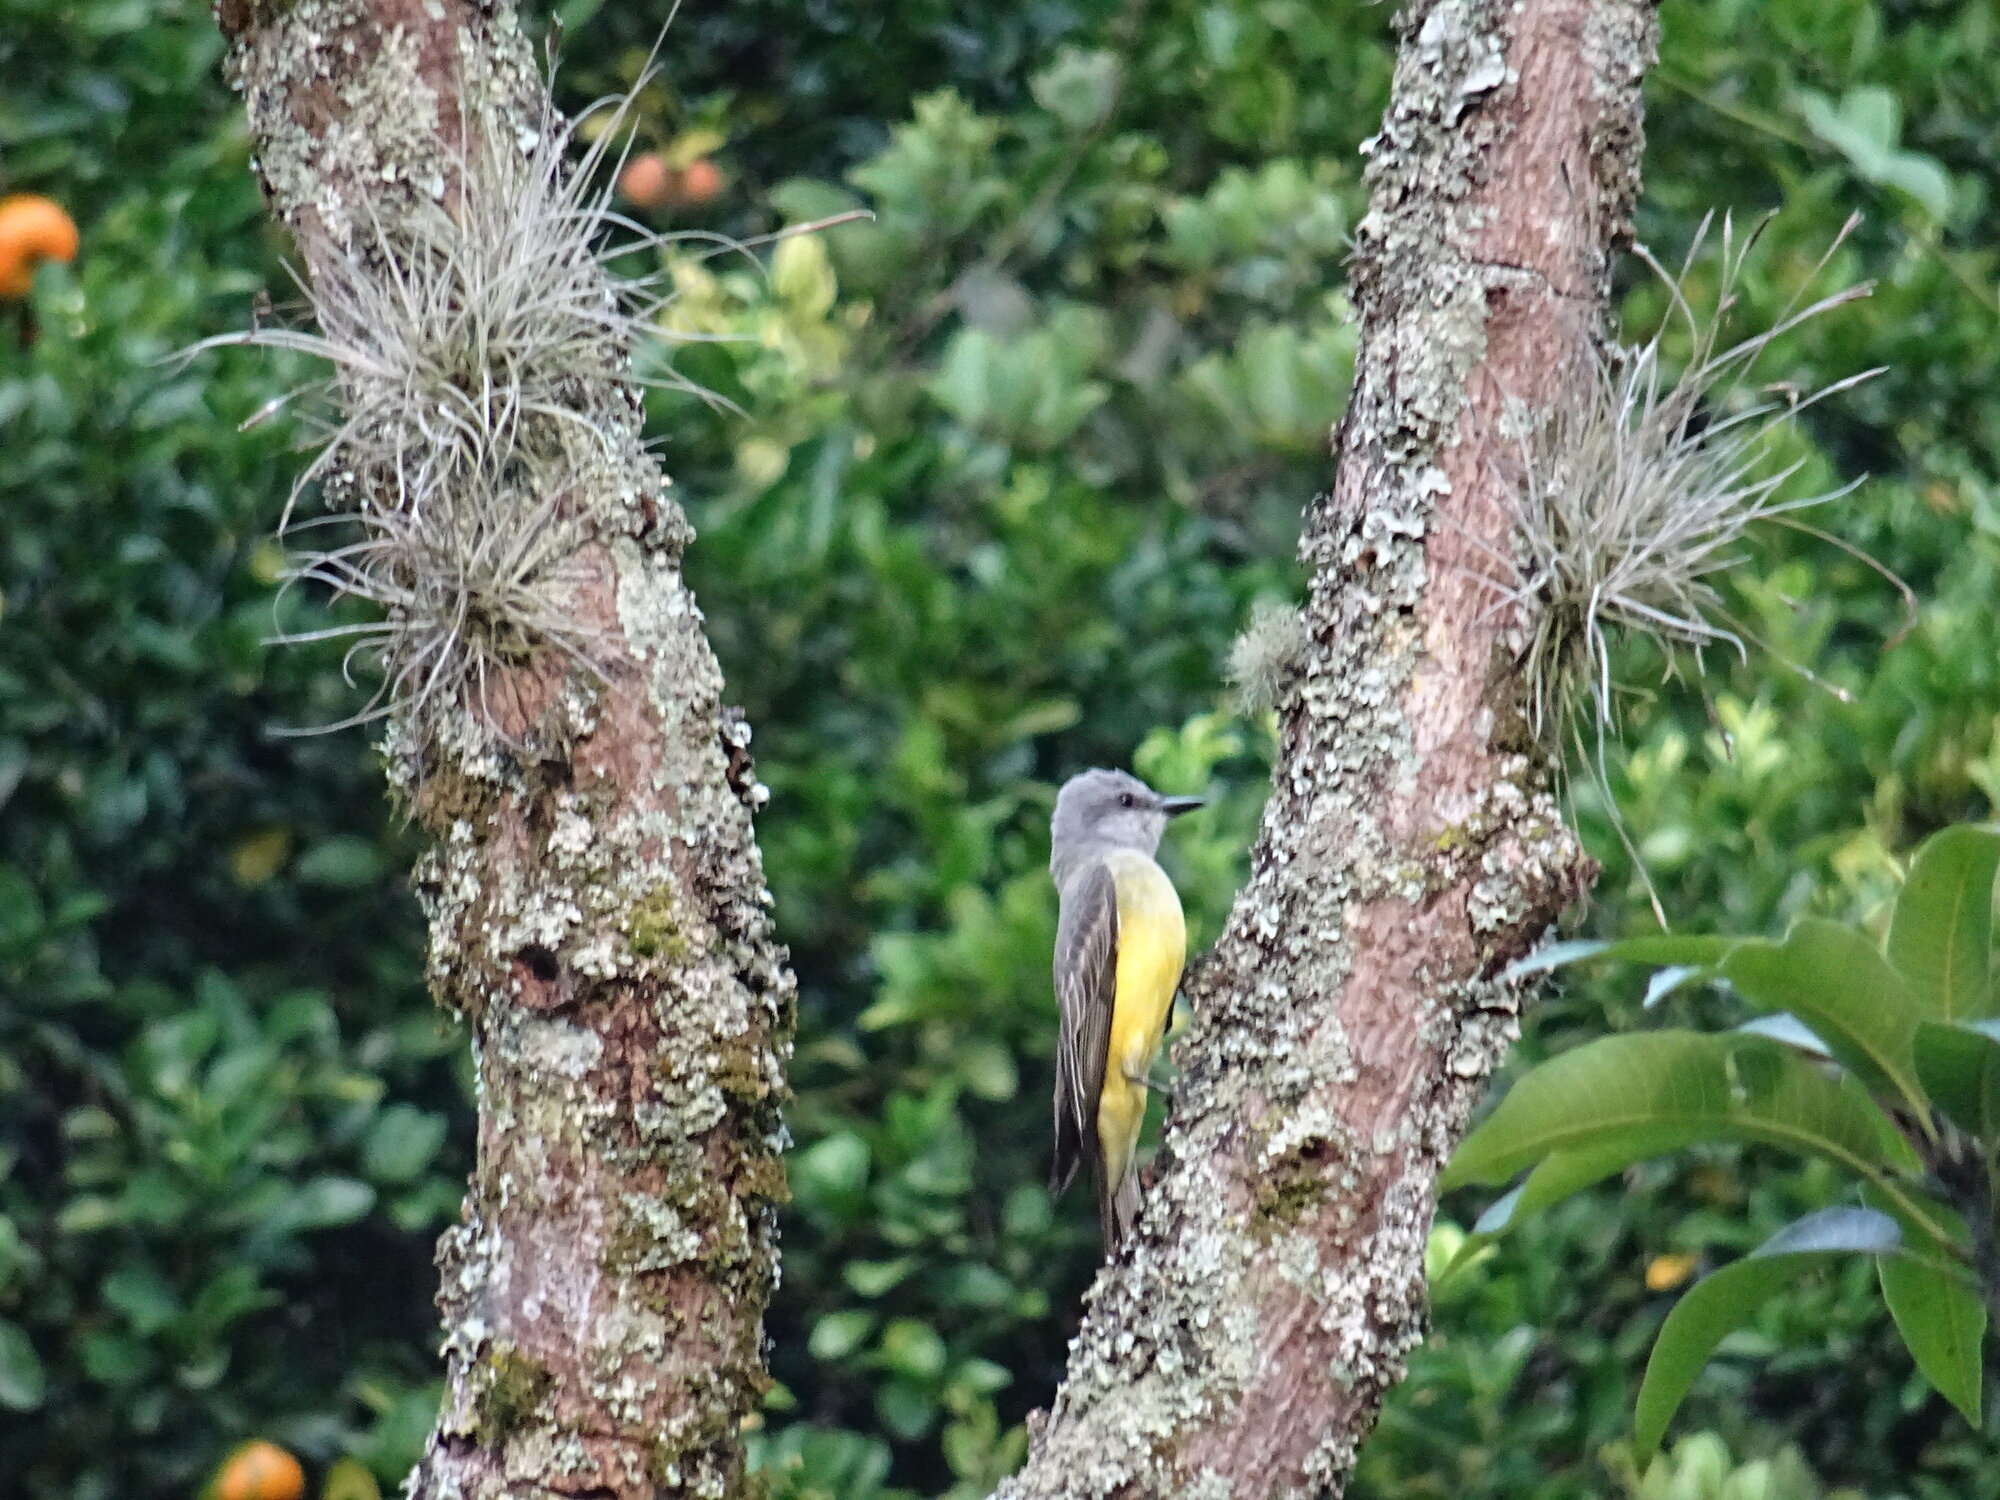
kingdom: Animalia
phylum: Chordata
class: Aves
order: Passeriformes
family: Tyrannidae
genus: Tyrannus
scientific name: Tyrannus melancholicus
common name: Tropical kingbird
